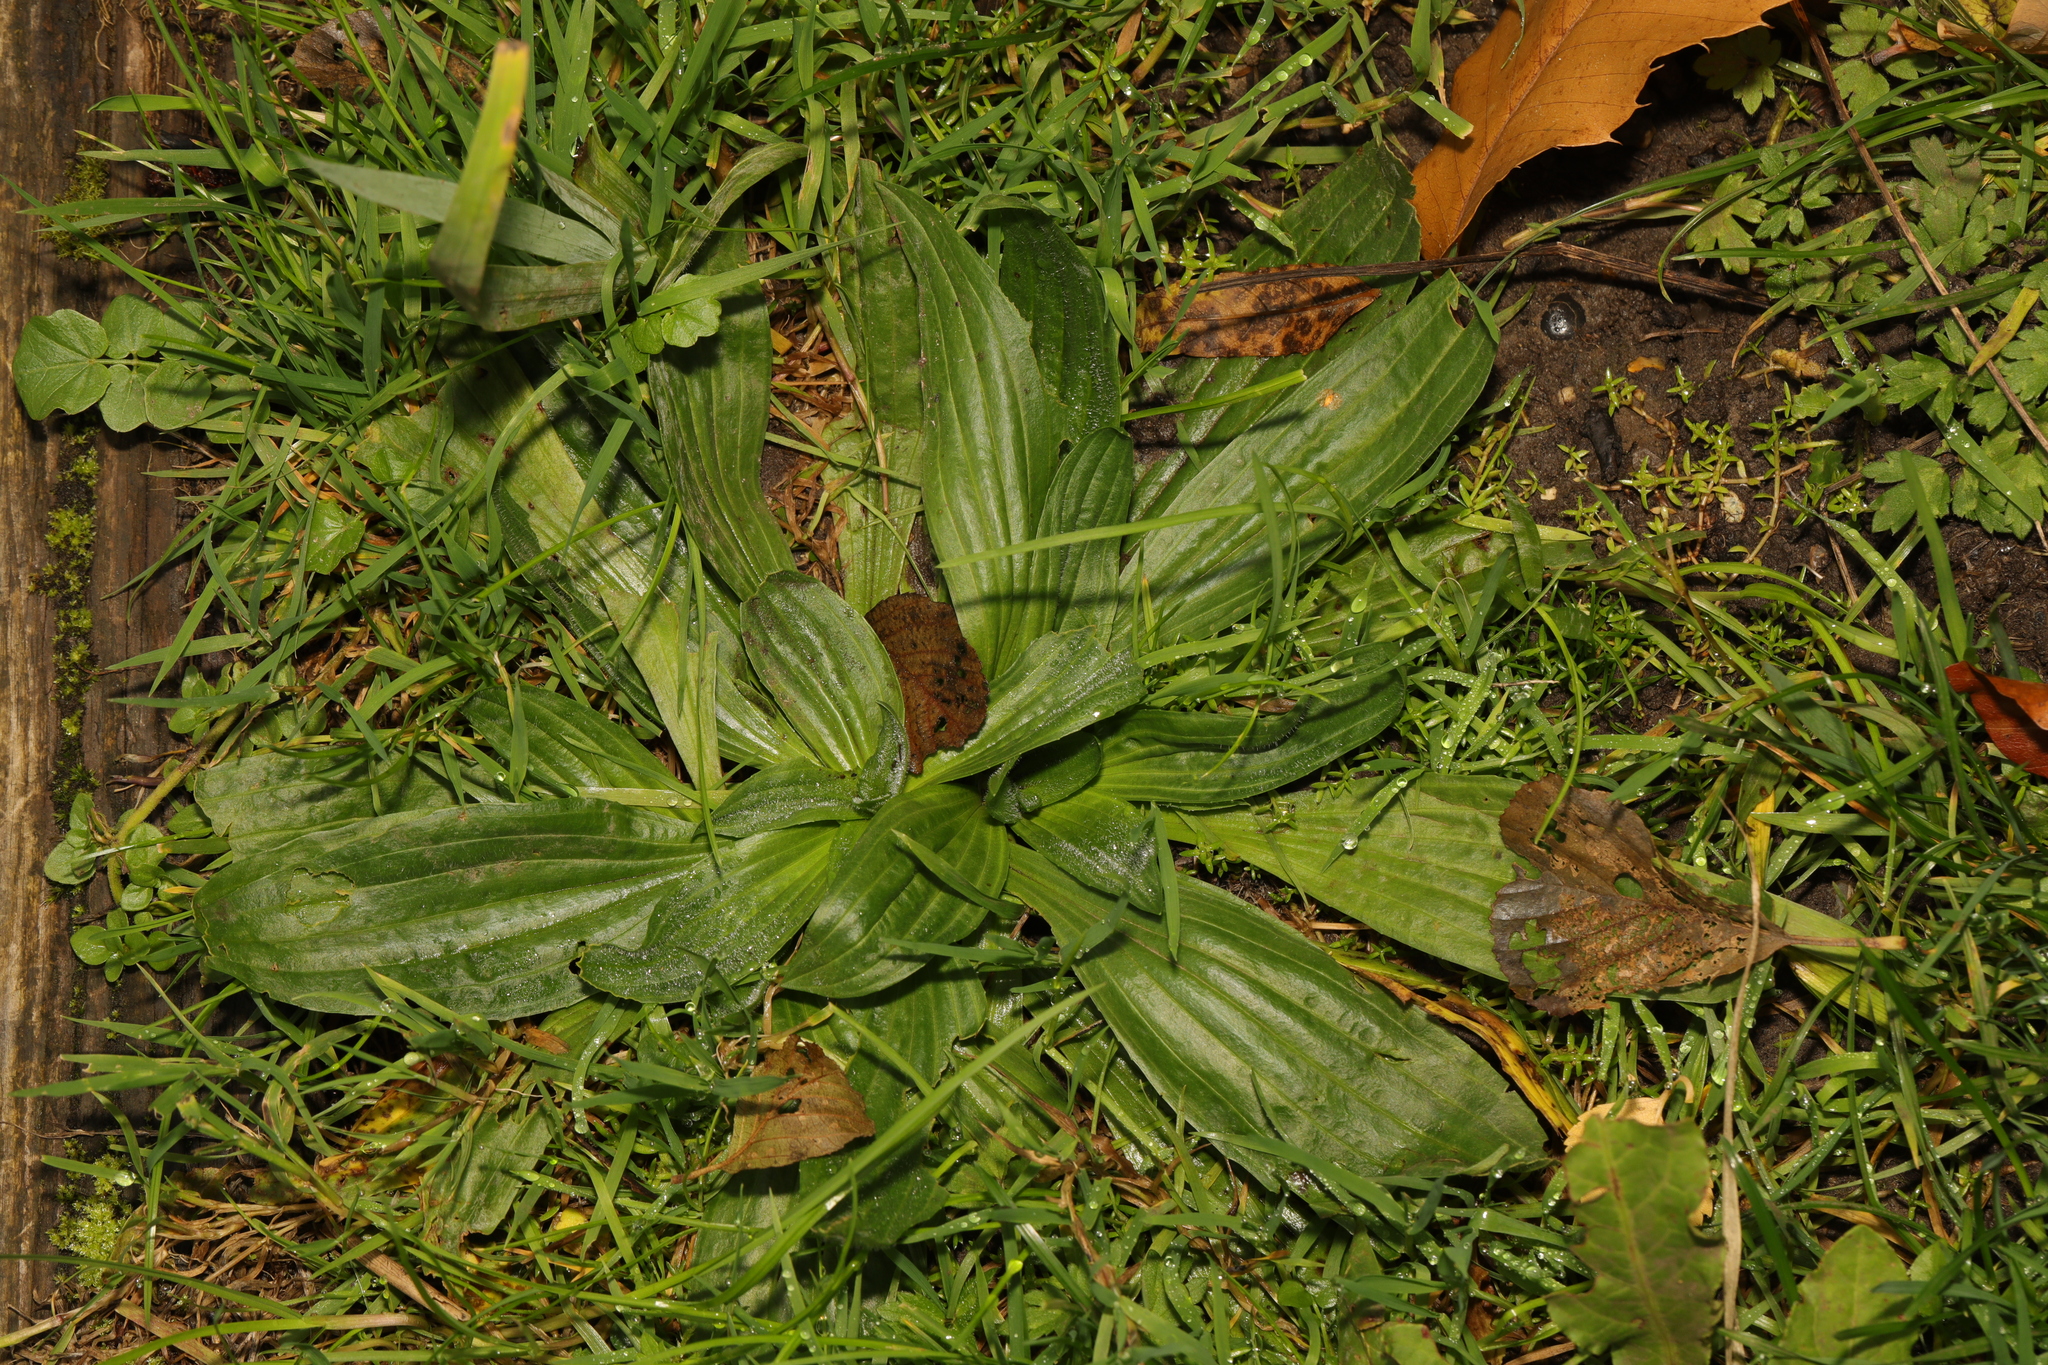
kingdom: Plantae
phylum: Tracheophyta
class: Magnoliopsida
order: Lamiales
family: Plantaginaceae
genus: Plantago
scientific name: Plantago lanceolata
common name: Ribwort plantain
